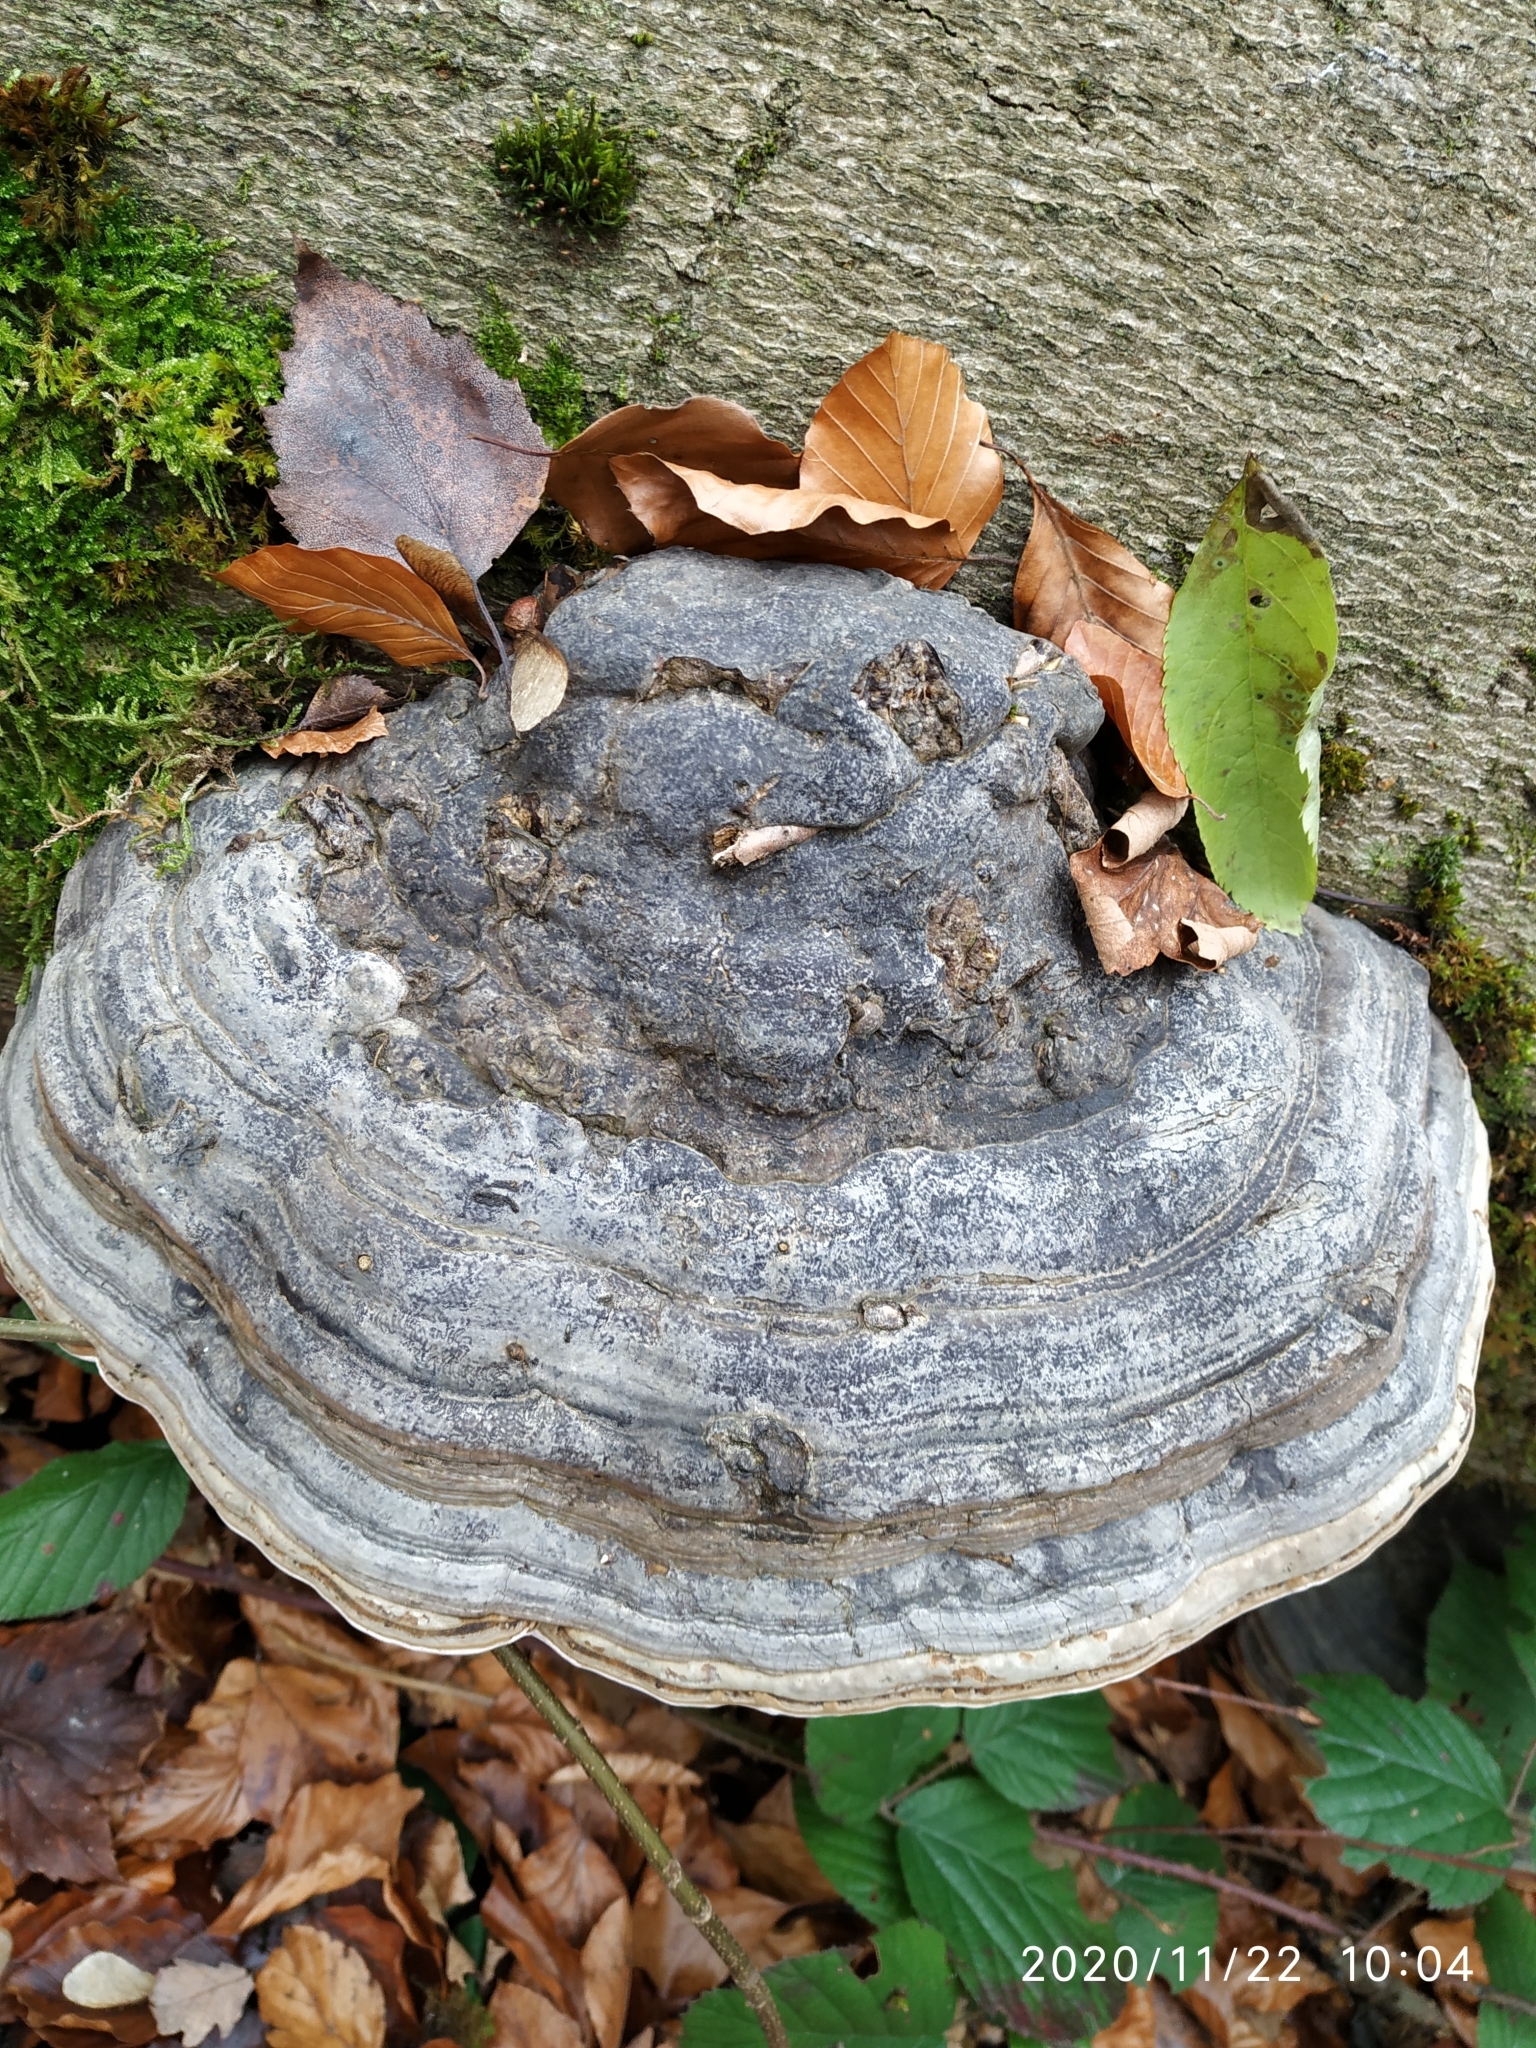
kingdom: Fungi
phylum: Basidiomycota
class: Agaricomycetes
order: Polyporales
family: Polyporaceae
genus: Fomes
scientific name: Fomes fomentarius
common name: Hoof fungus
